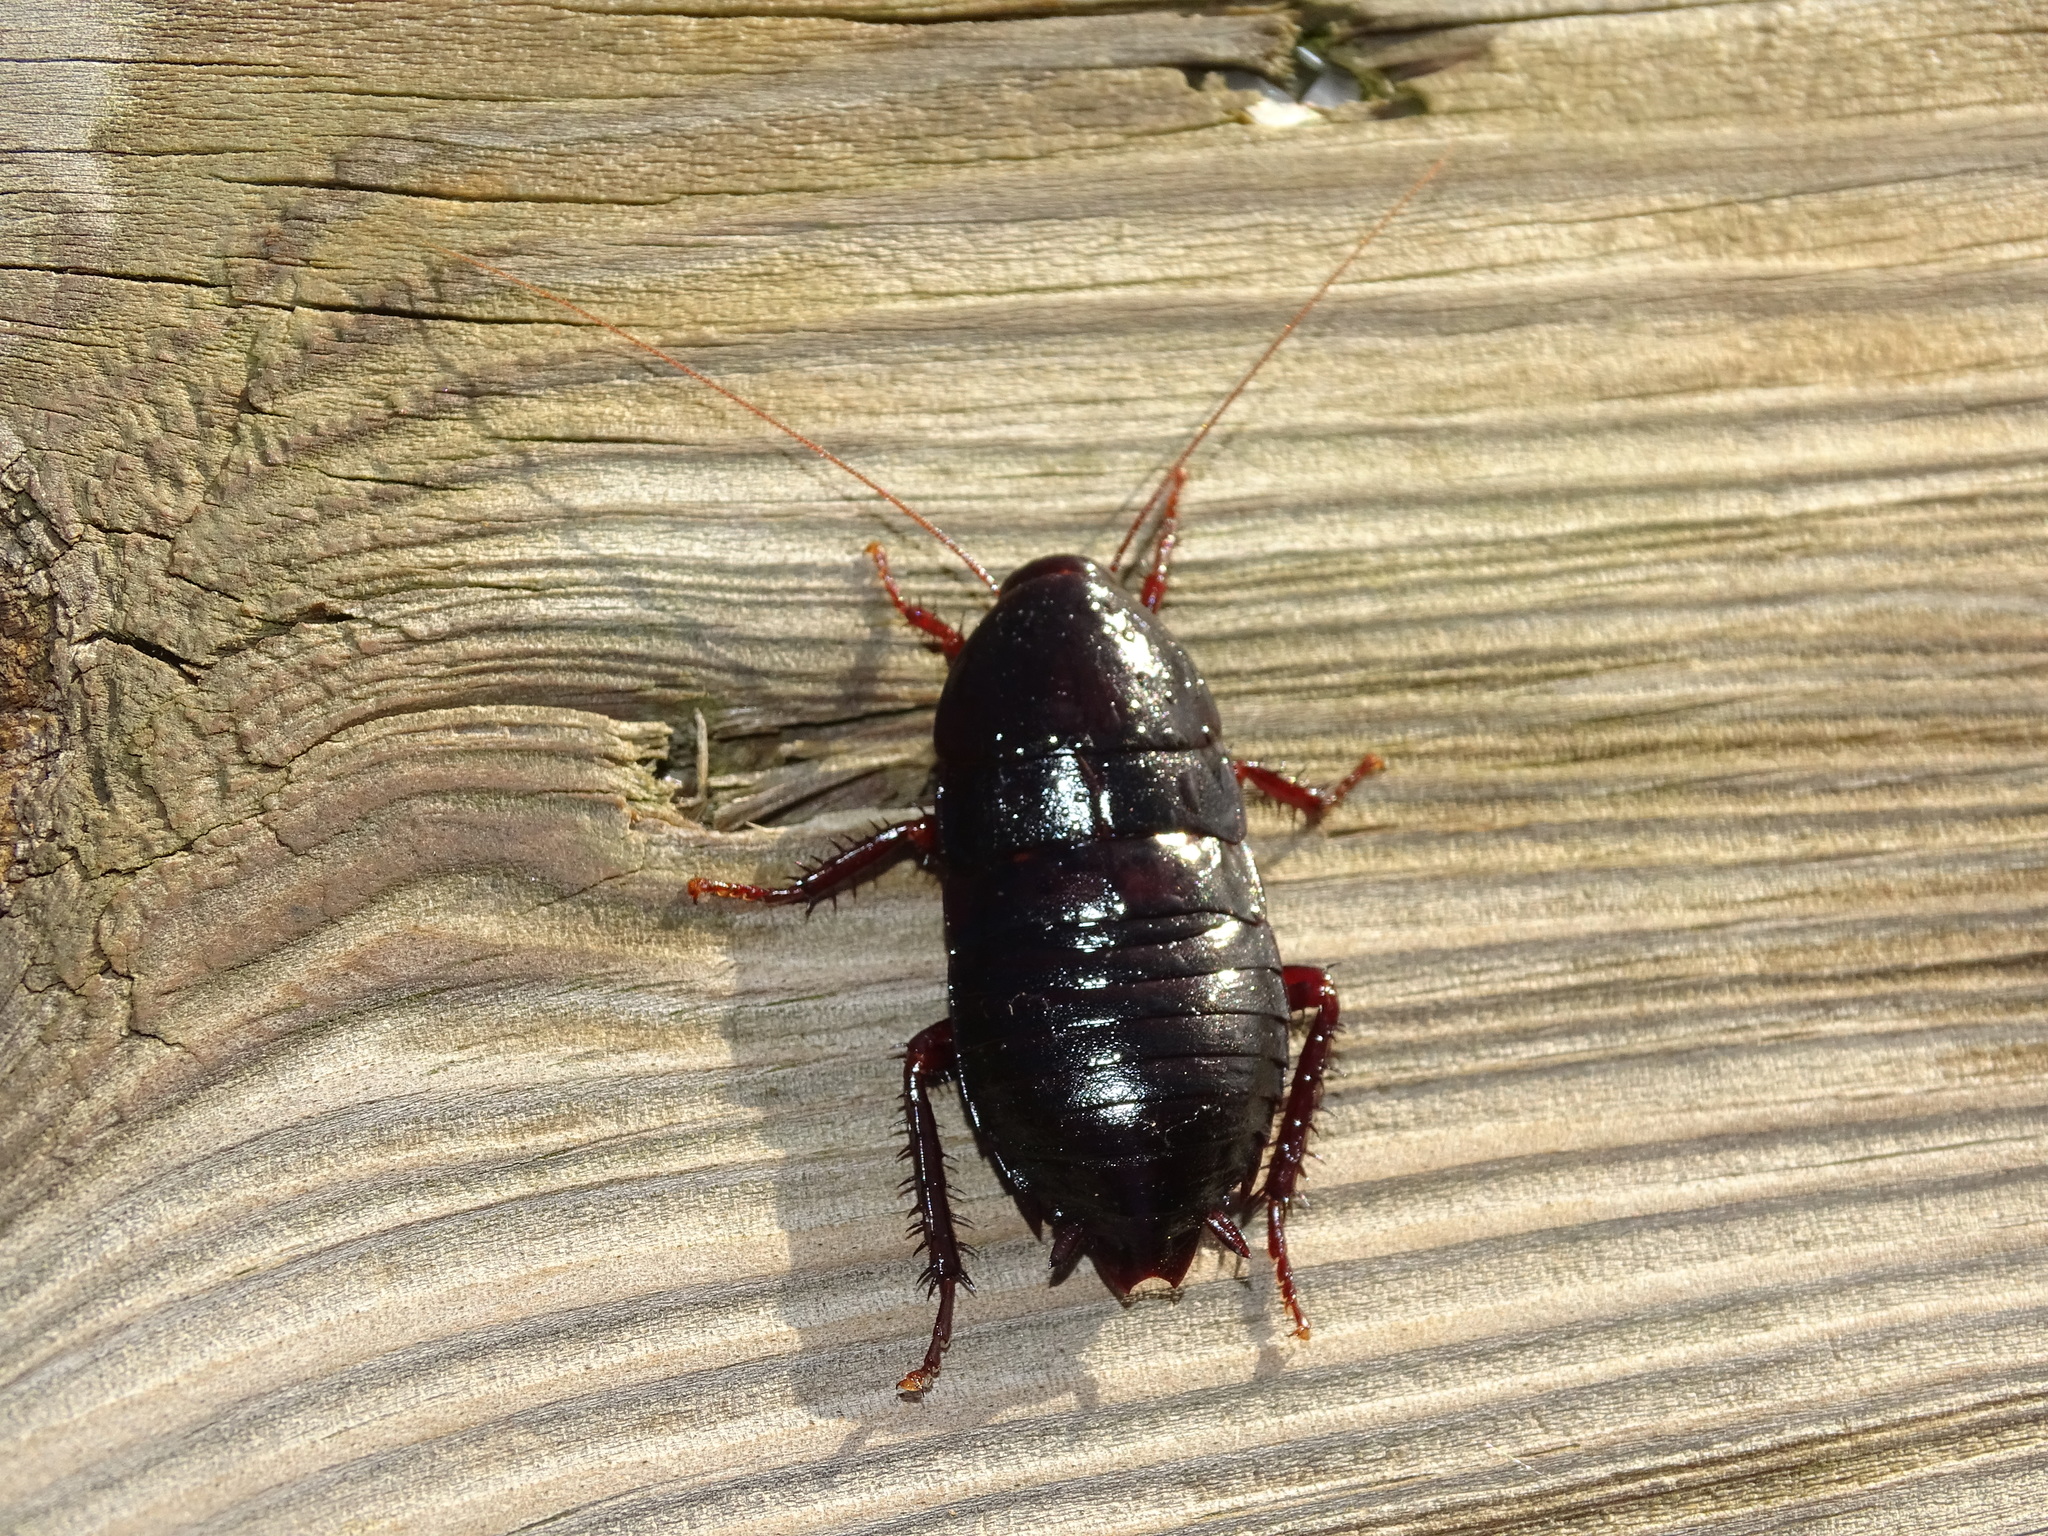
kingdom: Animalia
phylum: Arthropoda
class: Insecta
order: Blattodea
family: Blattidae
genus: Eurycotis
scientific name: Eurycotis floridana
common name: Florida cockroach
